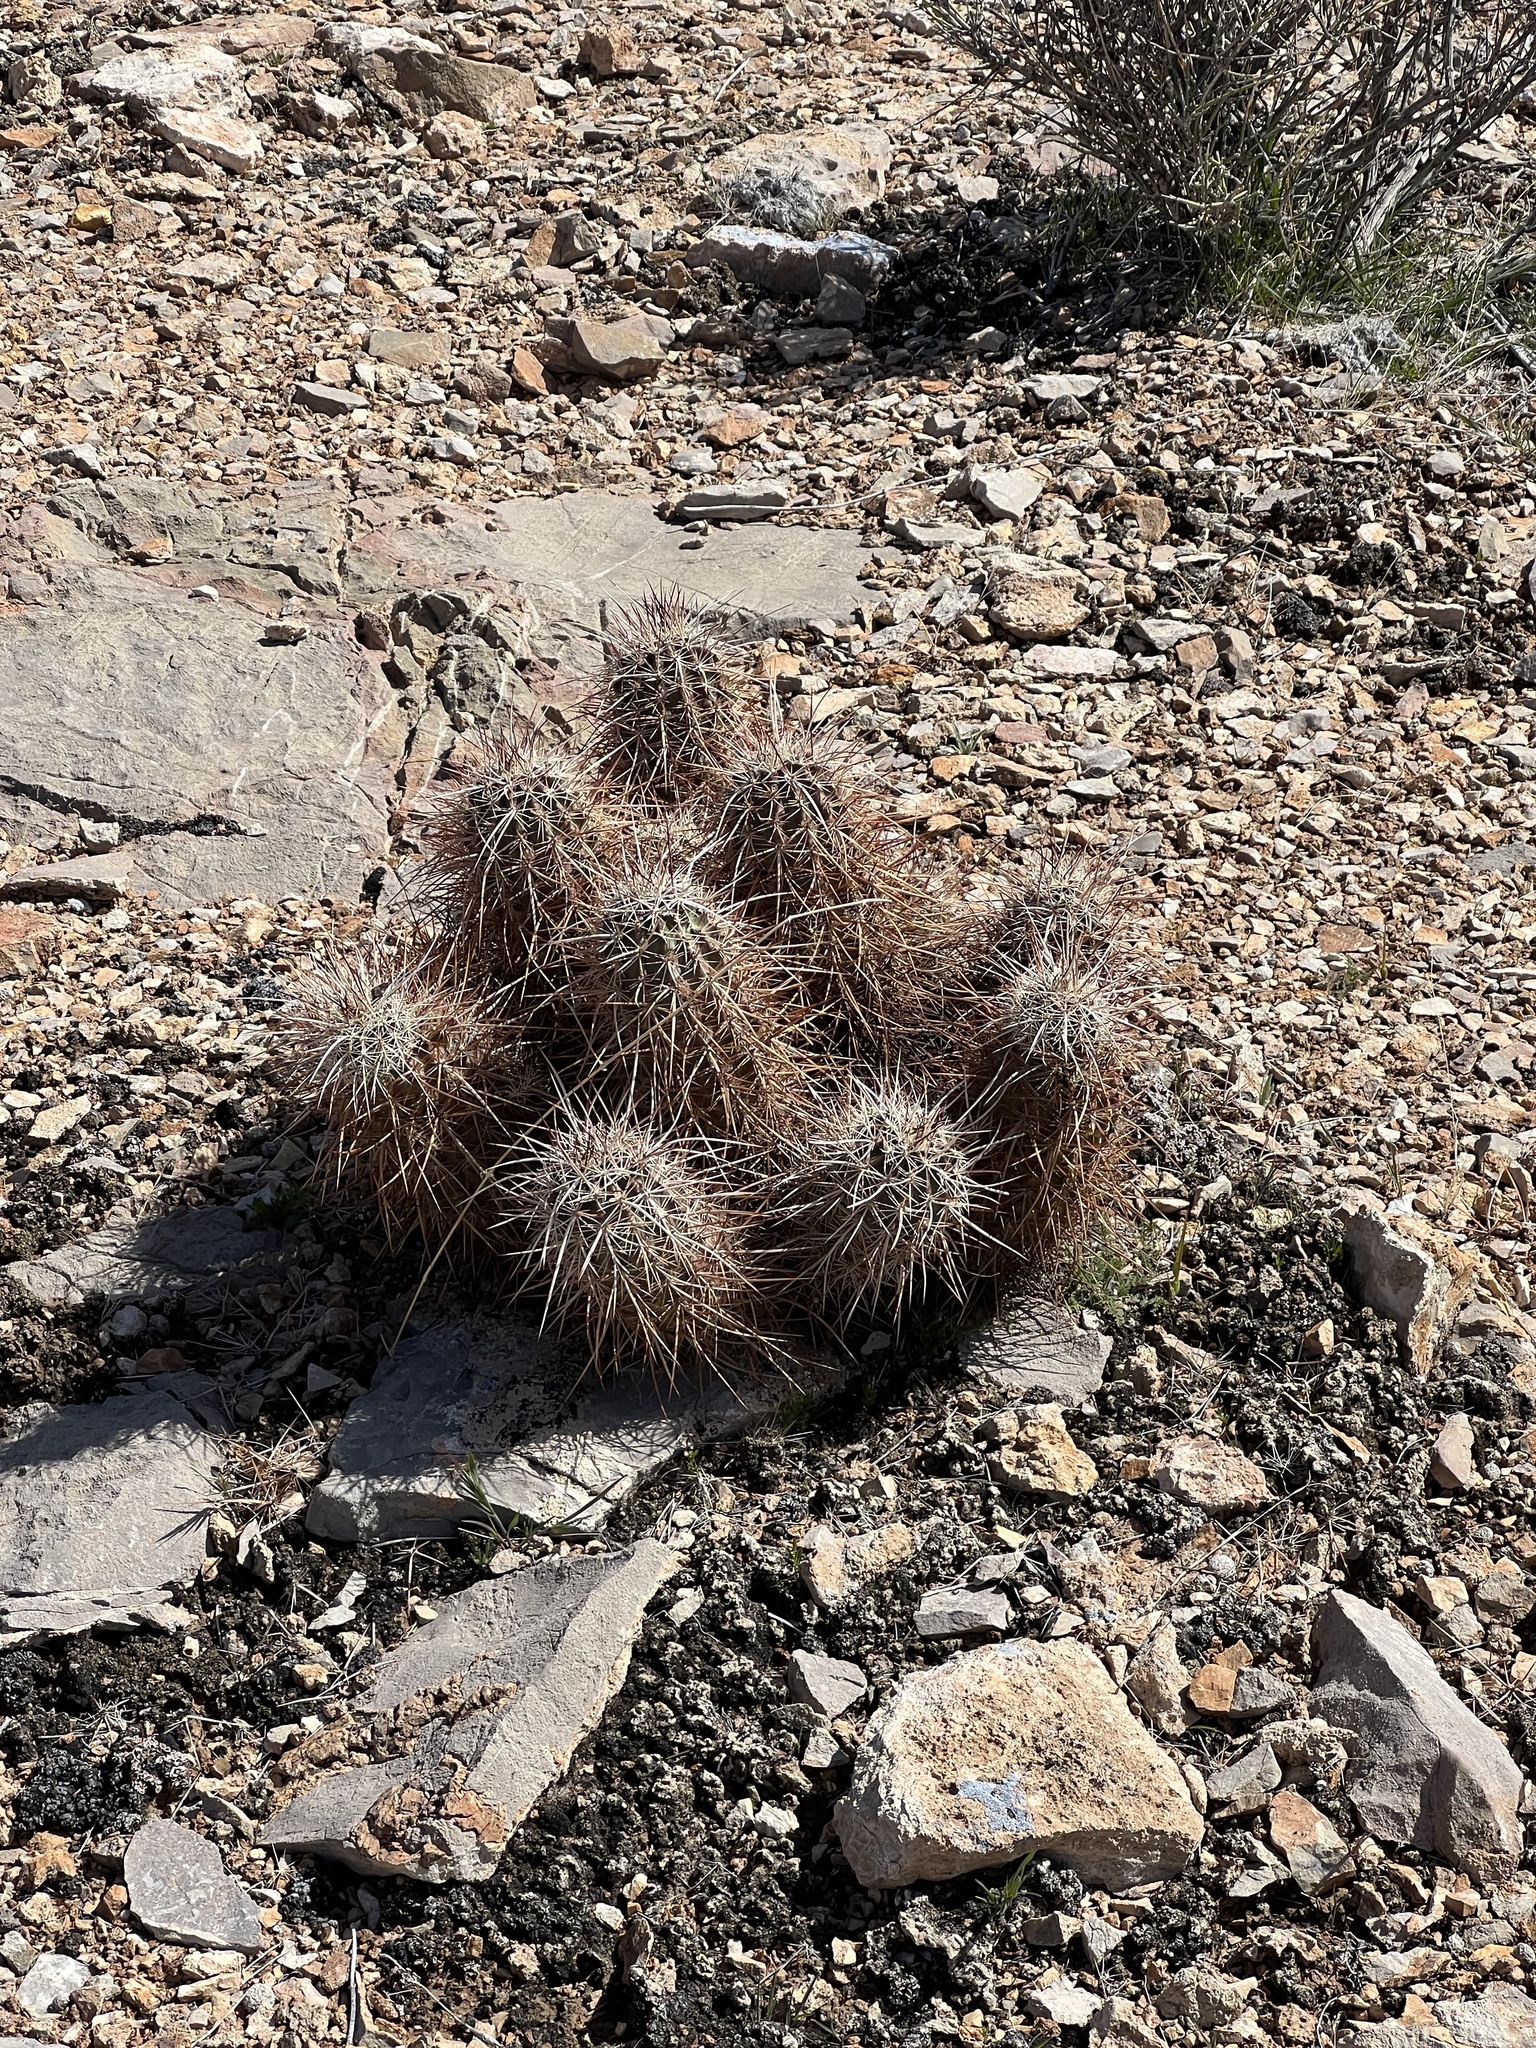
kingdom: Plantae
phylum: Tracheophyta
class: Magnoliopsida
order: Caryophyllales
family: Cactaceae
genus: Echinocereus
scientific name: Echinocereus engelmannii
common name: Engelmann's hedgehog cactus
